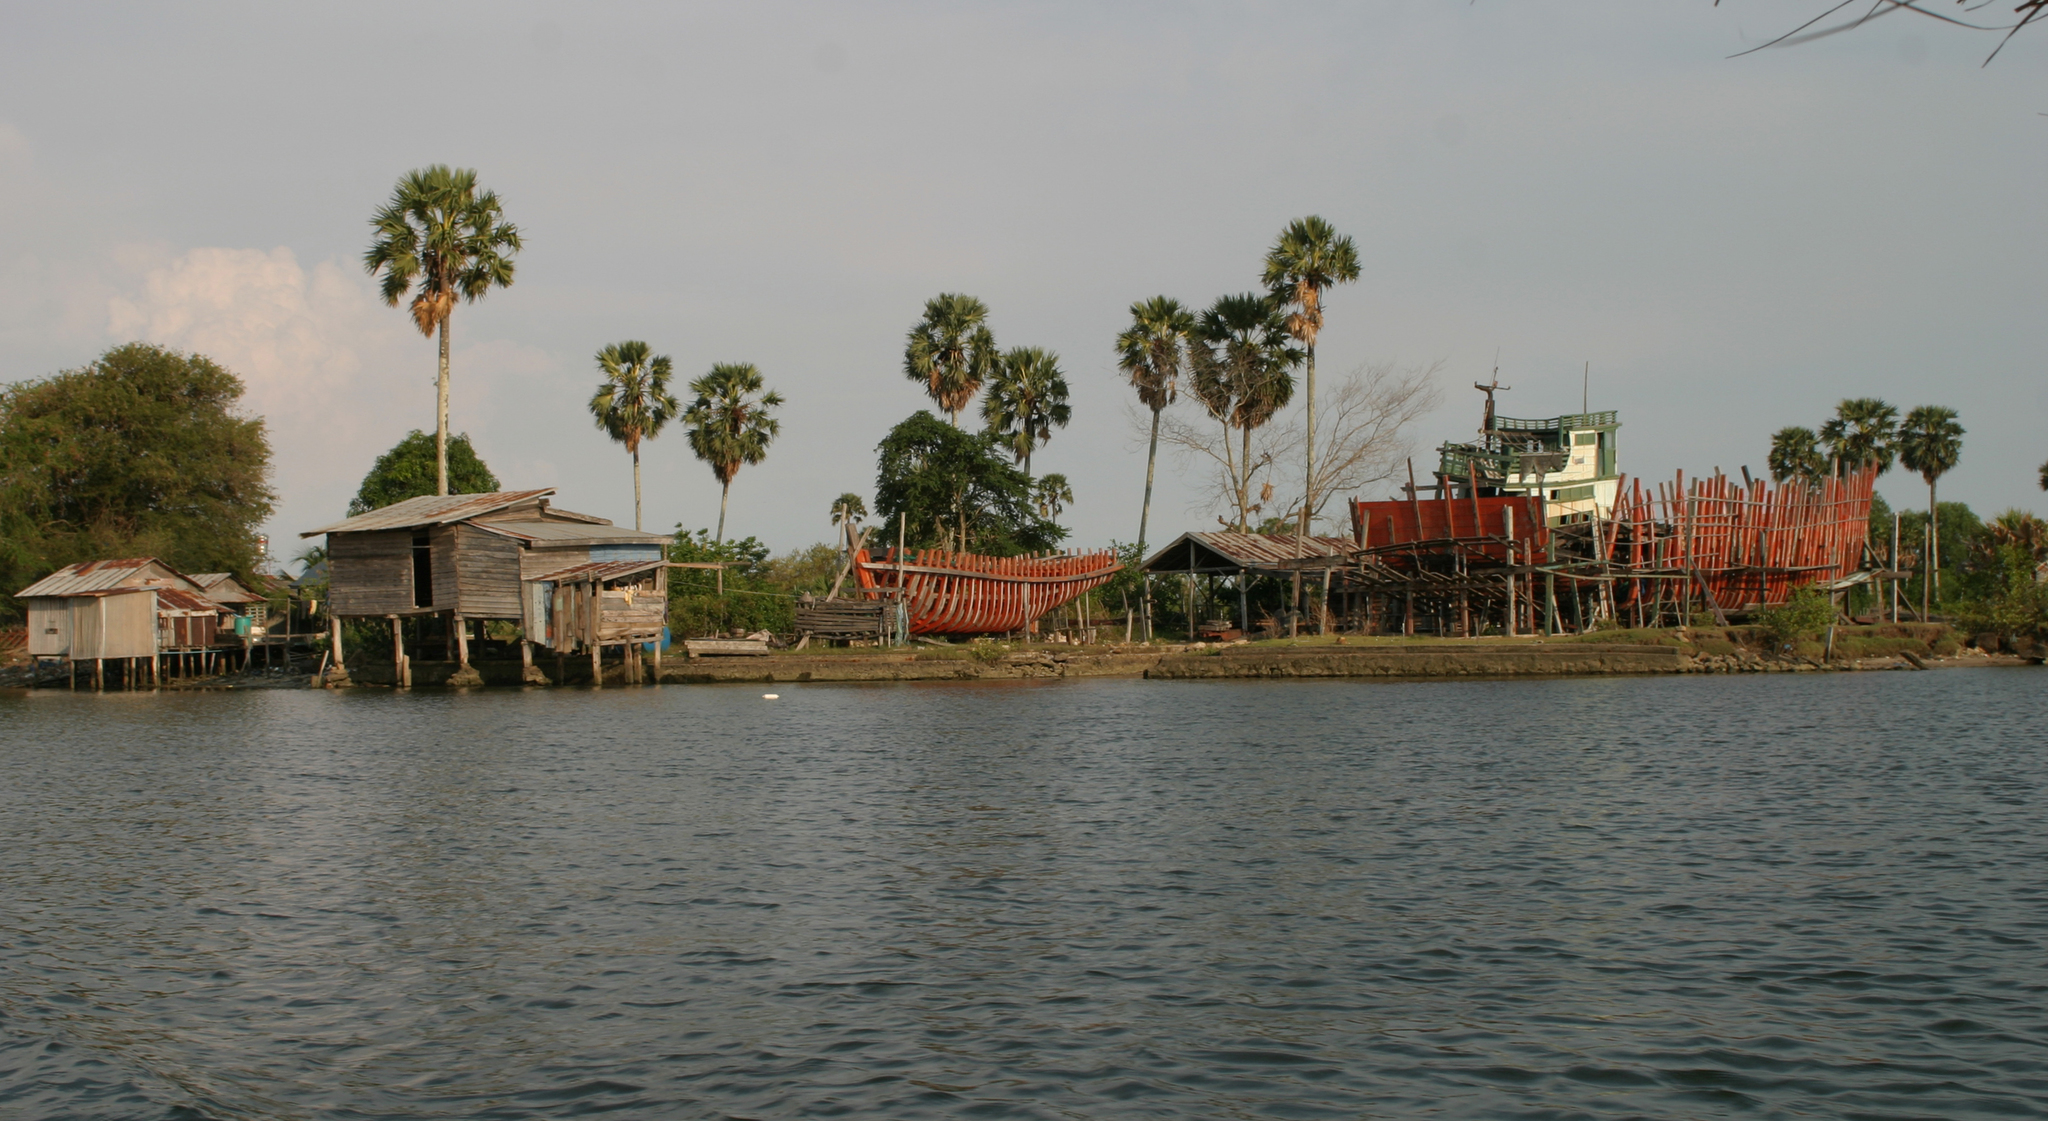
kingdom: Plantae
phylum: Tracheophyta
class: Liliopsida
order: Arecales
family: Arecaceae
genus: Borassus
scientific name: Borassus flabellifer
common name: Palmyra palm
